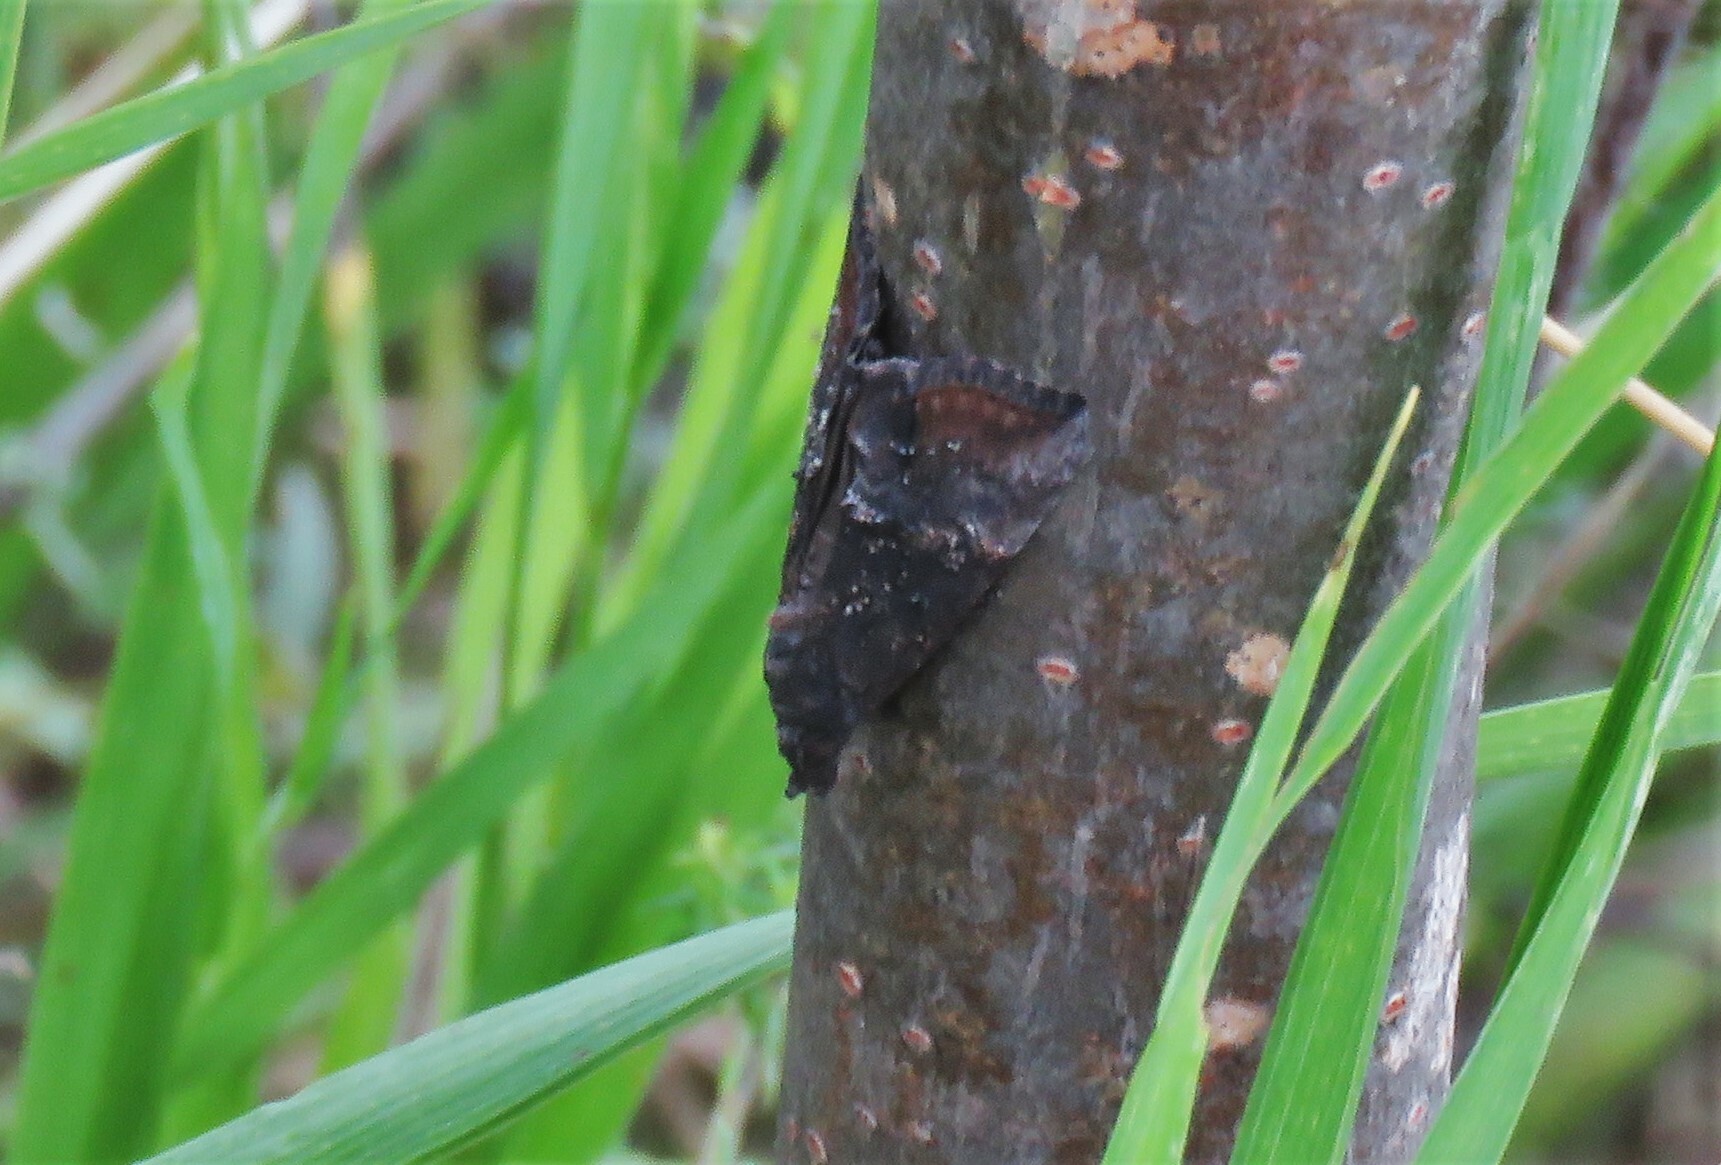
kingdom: Animalia
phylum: Arthropoda
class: Insecta
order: Lepidoptera
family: Erebidae
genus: Hypena
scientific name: Hypena scabra
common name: Green cloverworm
